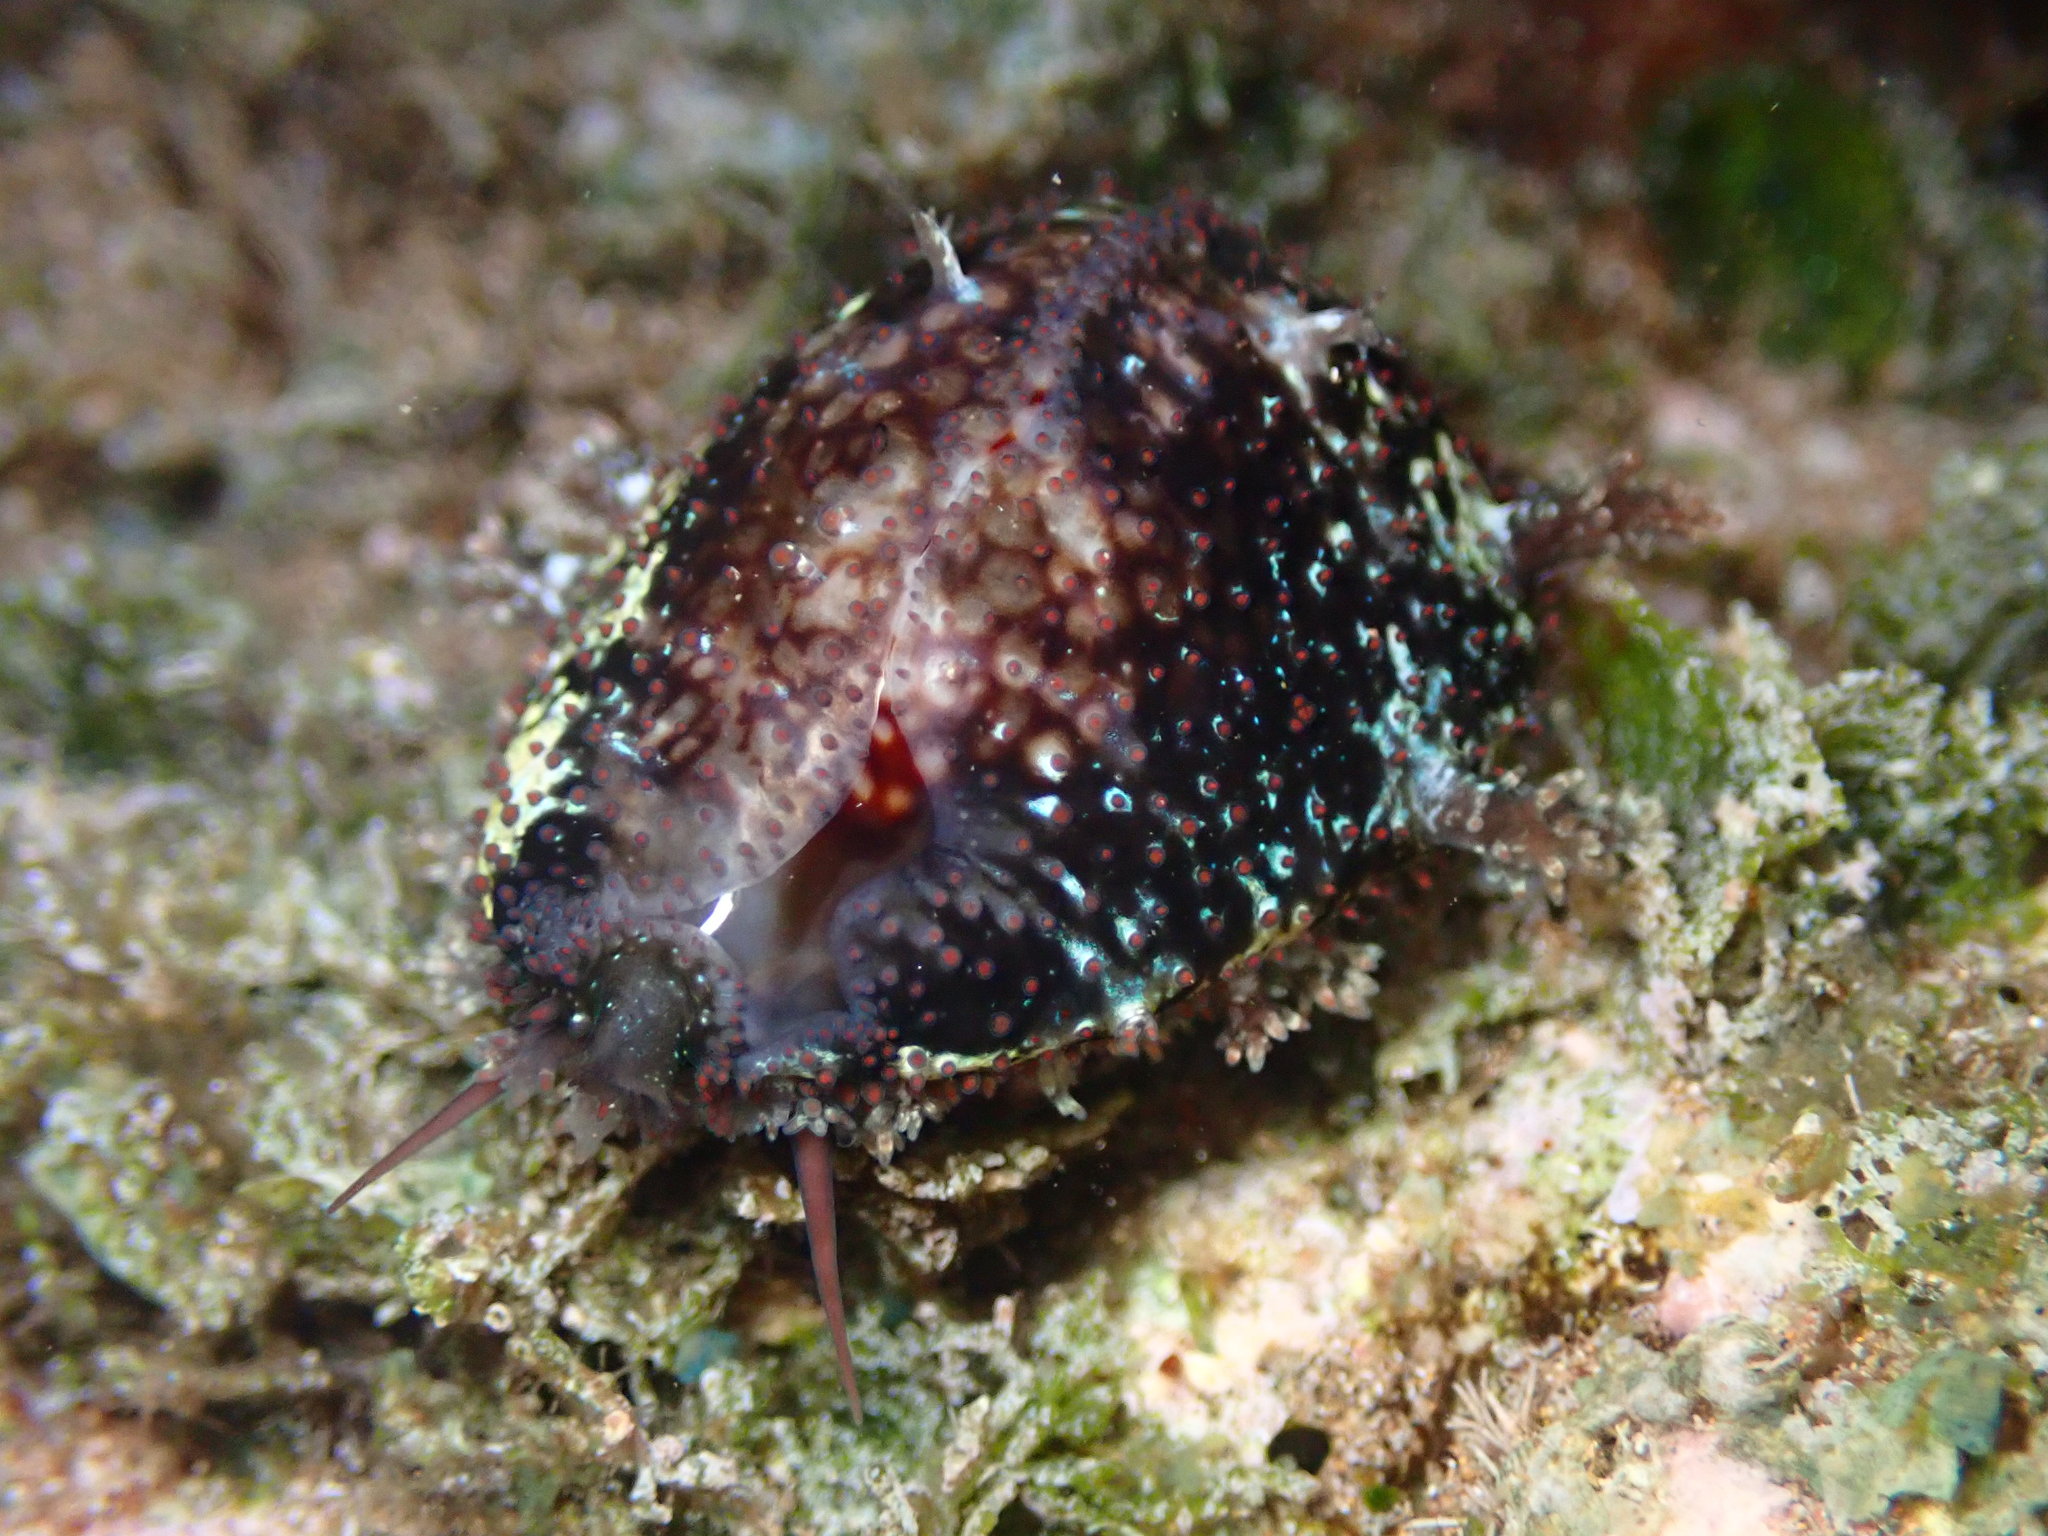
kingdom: Animalia
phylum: Mollusca
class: Gastropoda
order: Littorinimorpha
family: Cypraeidae
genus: Monetaria
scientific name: Monetaria caputophidii
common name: Snake's head cowry
